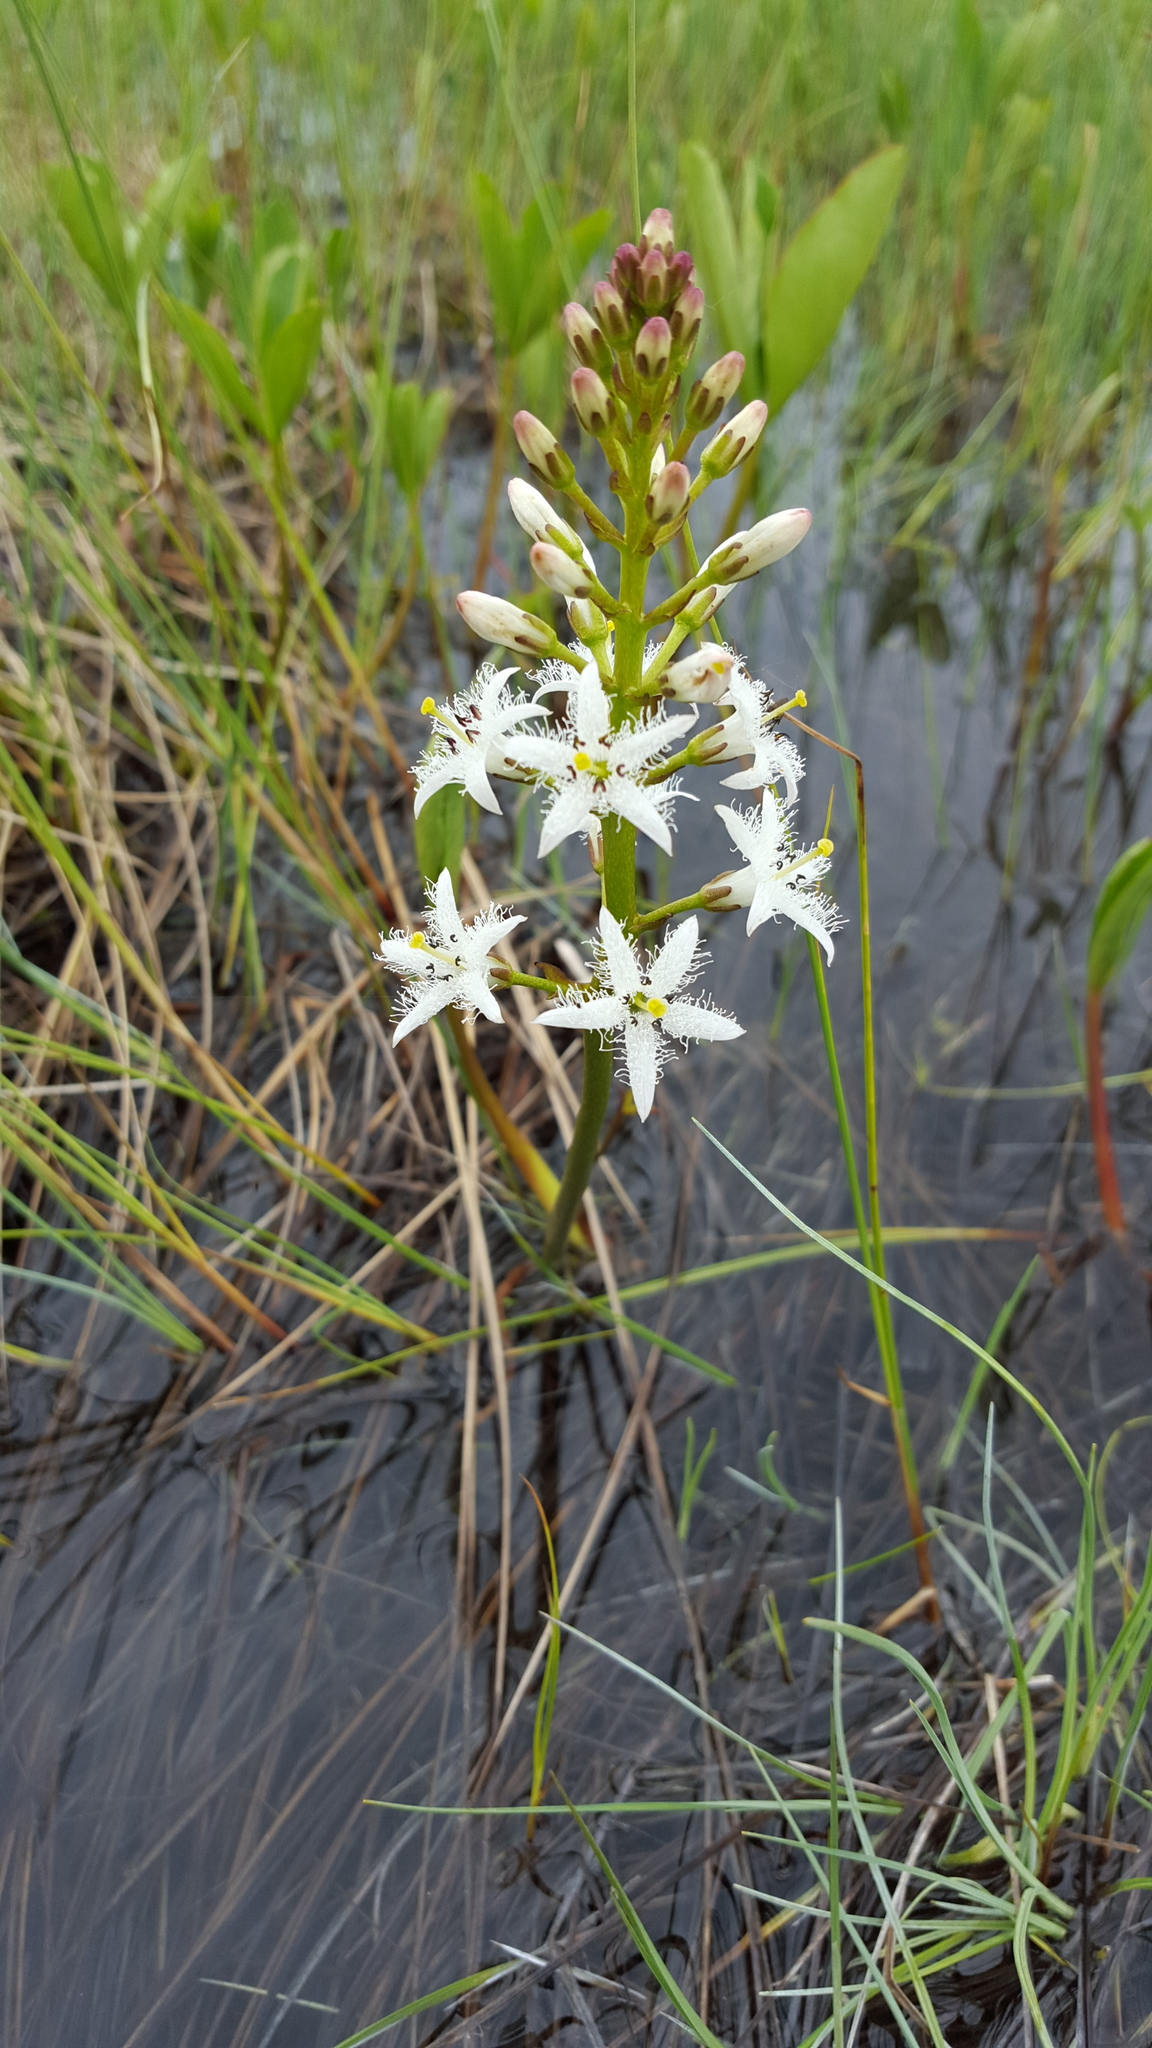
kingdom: Plantae
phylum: Tracheophyta
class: Magnoliopsida
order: Asterales
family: Menyanthaceae
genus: Menyanthes
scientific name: Menyanthes trifoliata
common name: Bogbean
